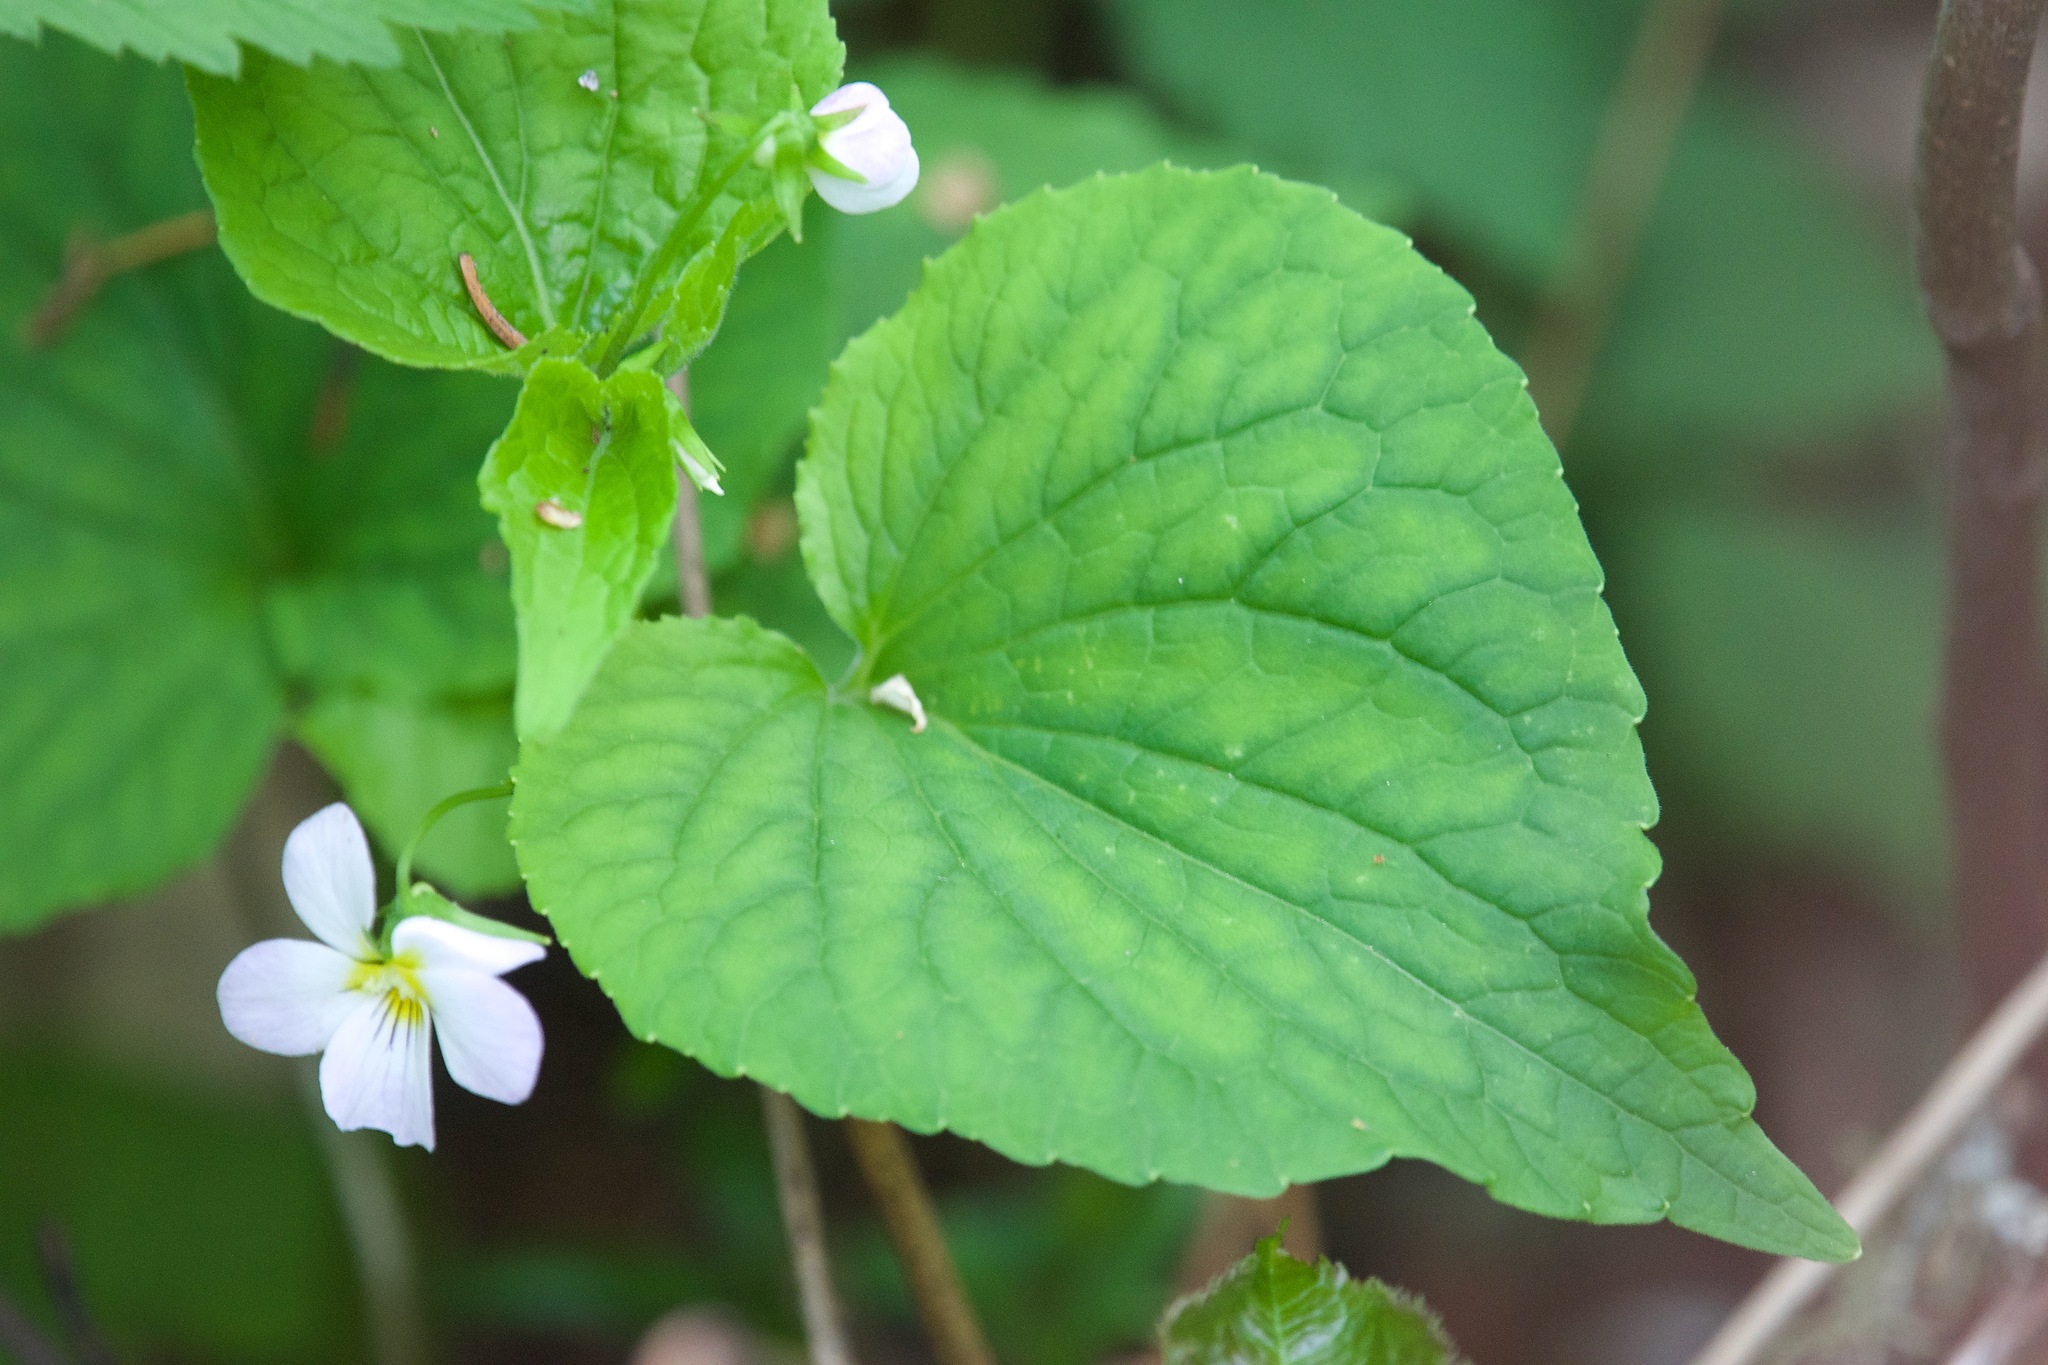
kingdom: Plantae
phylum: Tracheophyta
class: Magnoliopsida
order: Malpighiales
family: Violaceae
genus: Viola
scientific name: Viola canadensis
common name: Canada violet
